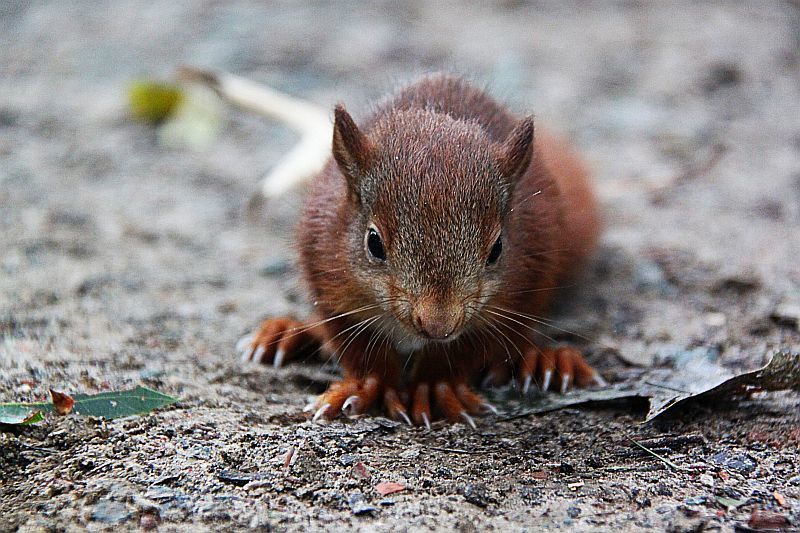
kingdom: Animalia
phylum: Chordata
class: Mammalia
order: Rodentia
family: Sciuridae
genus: Sciurus
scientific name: Sciurus vulgaris
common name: Eurasian red squirrel
